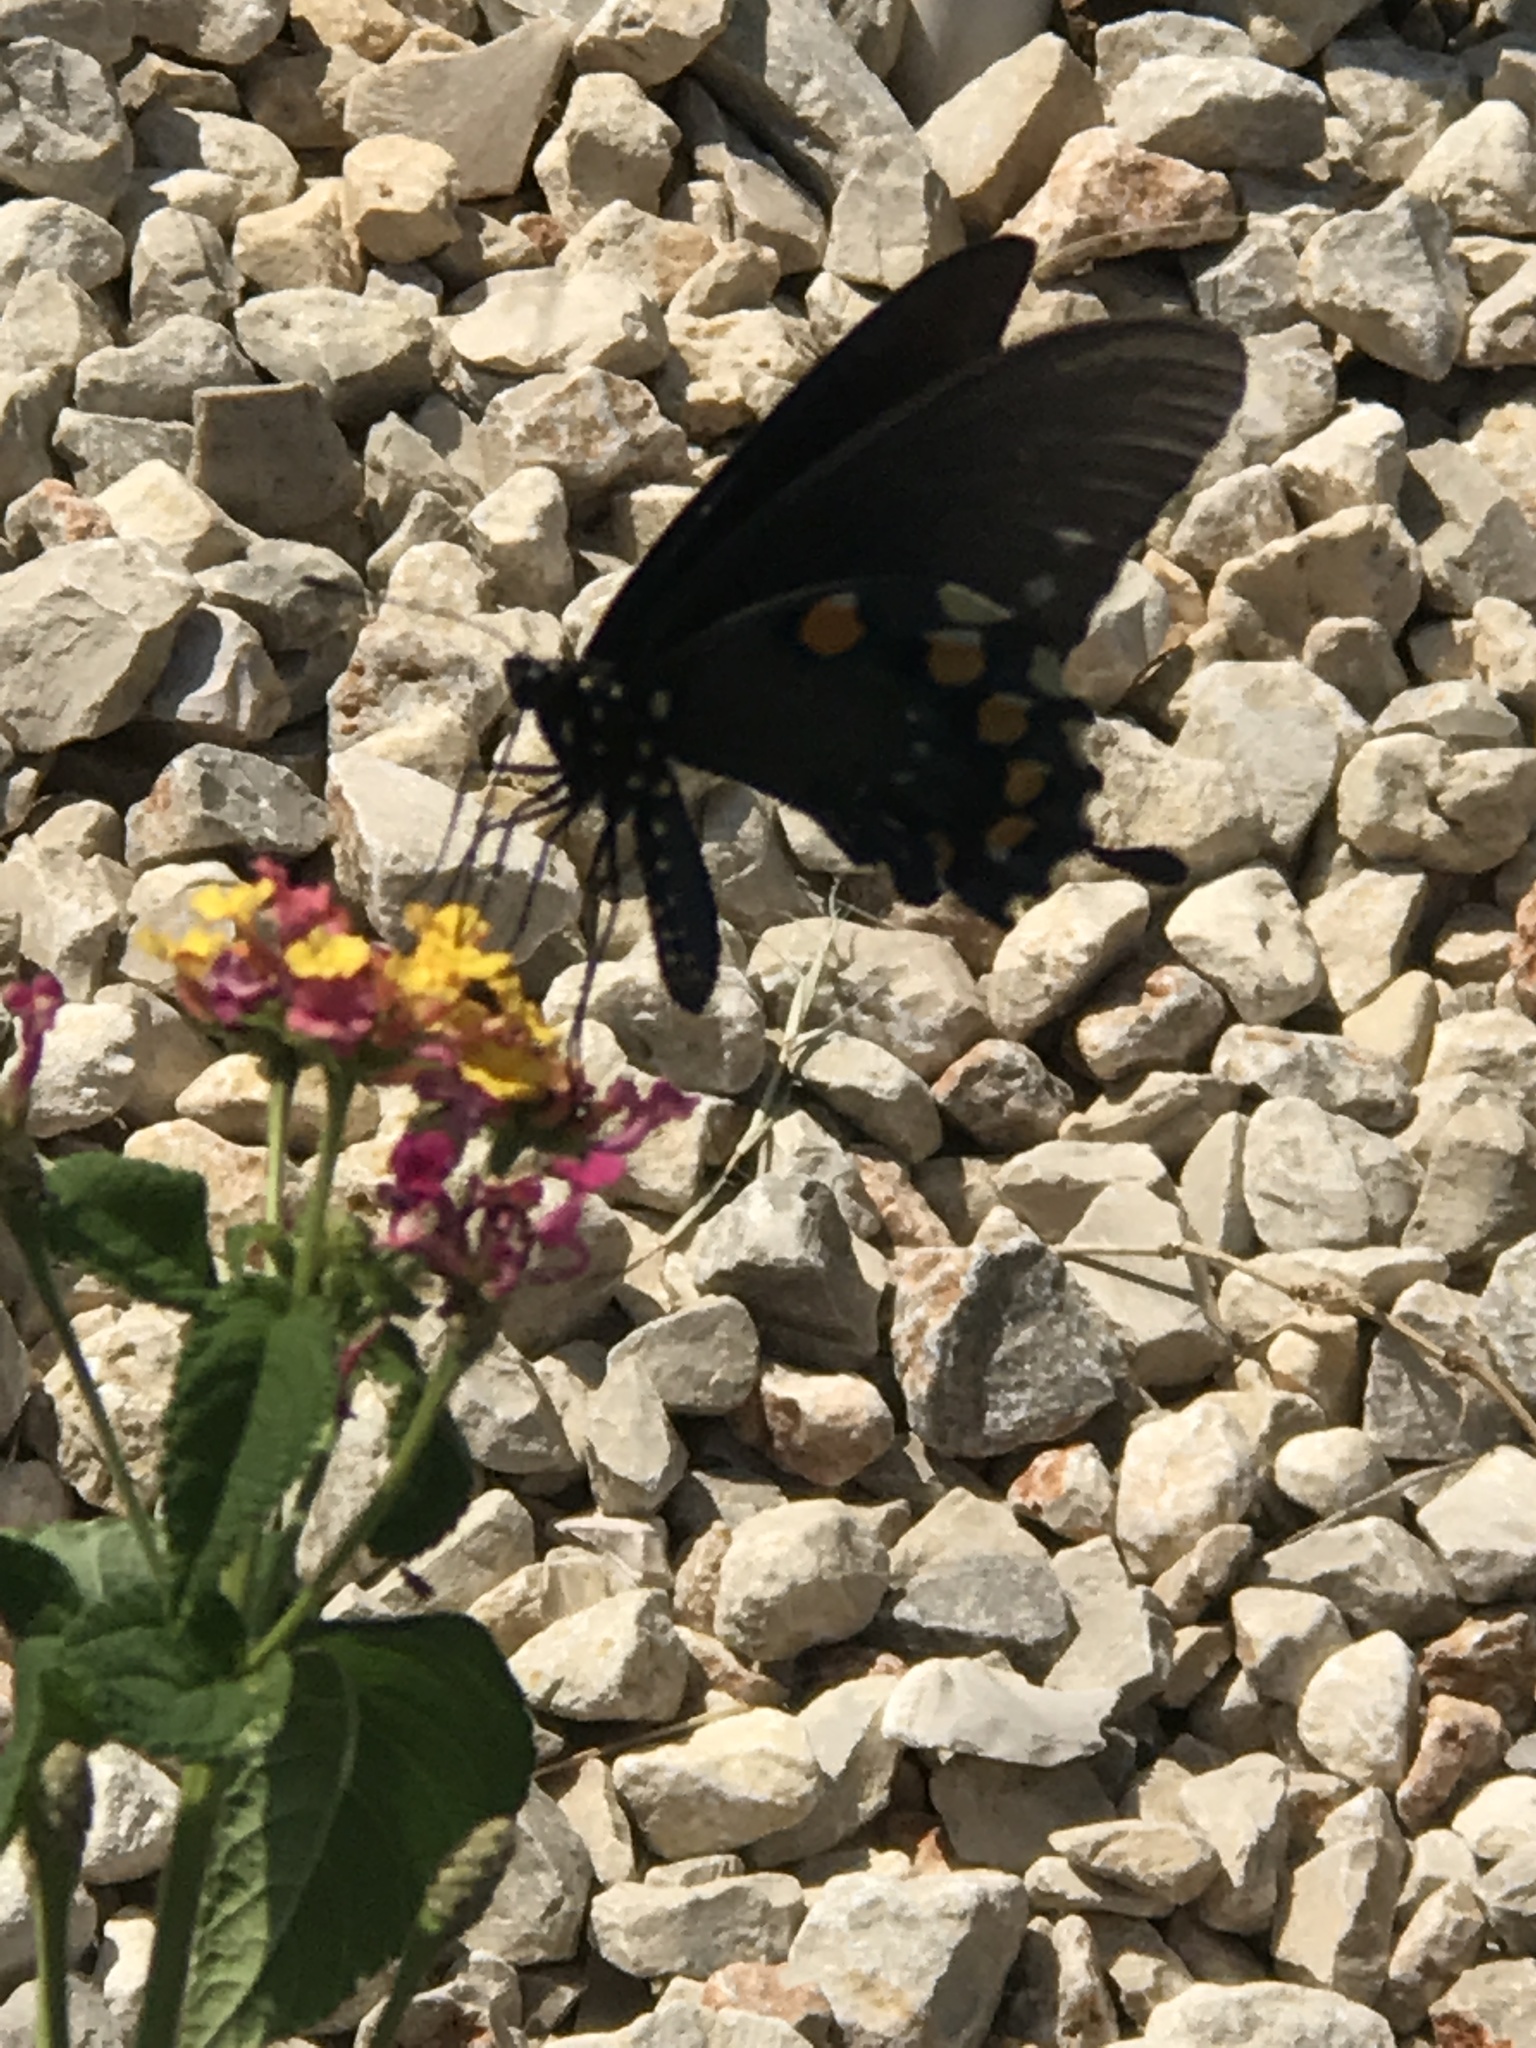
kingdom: Animalia
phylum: Arthropoda
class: Insecta
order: Lepidoptera
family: Papilionidae
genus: Battus
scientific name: Battus philenor
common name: Pipevine swallowtail
